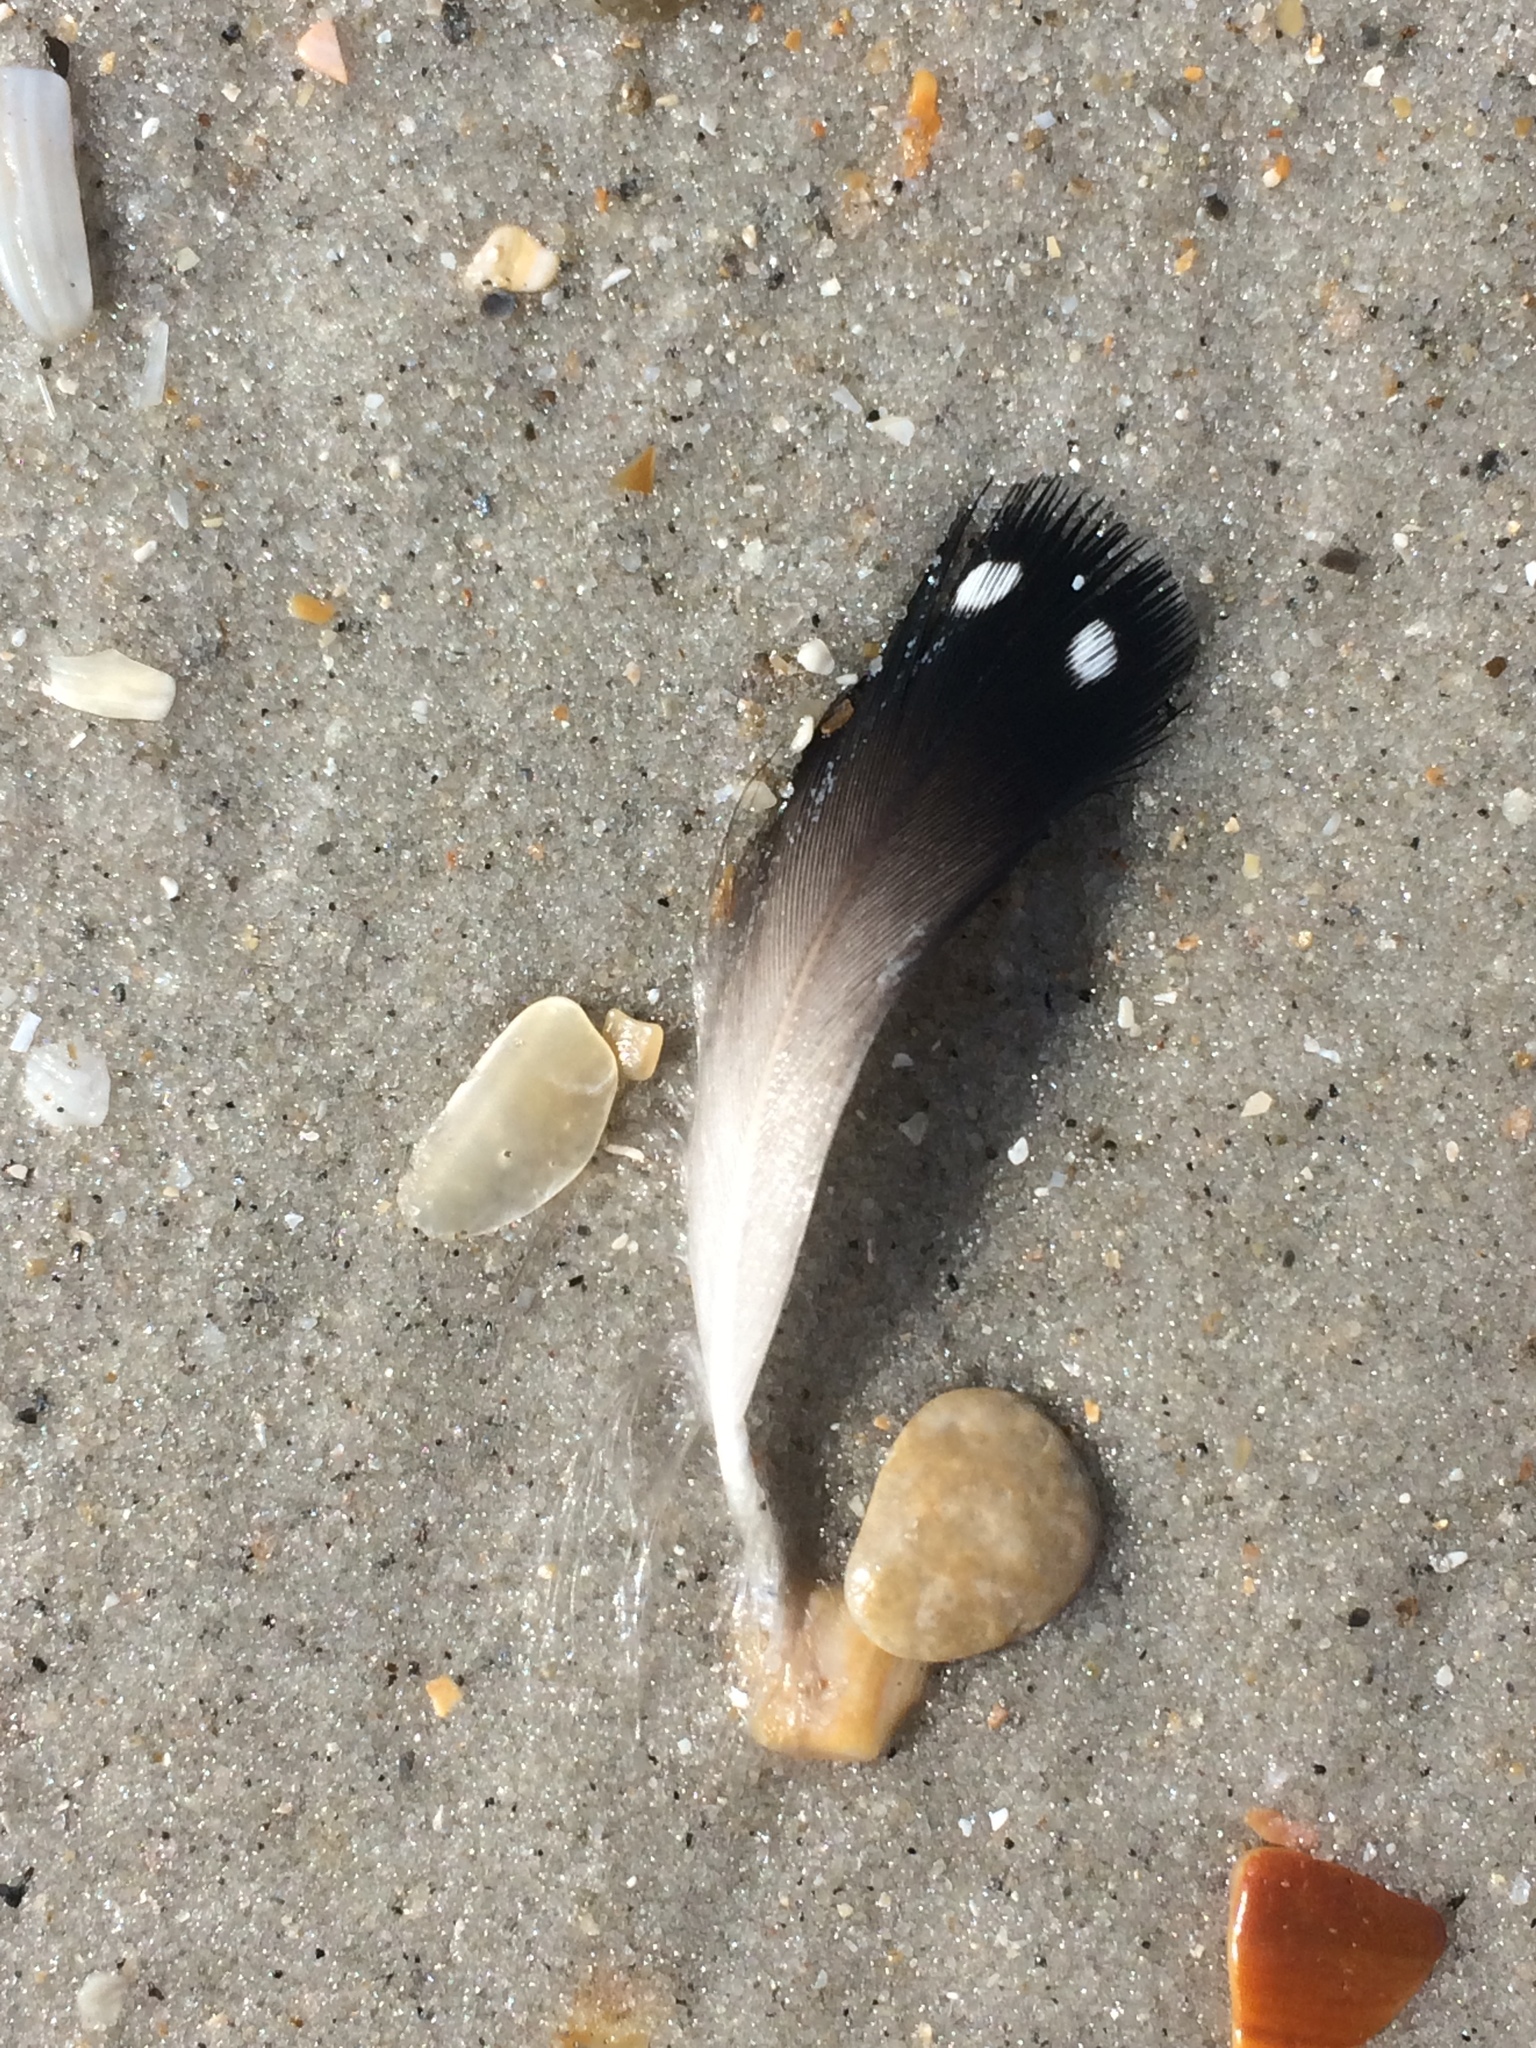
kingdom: Animalia
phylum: Chordata
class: Aves
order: Gaviiformes
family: Gaviidae
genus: Gavia
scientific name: Gavia immer
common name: Common loon
